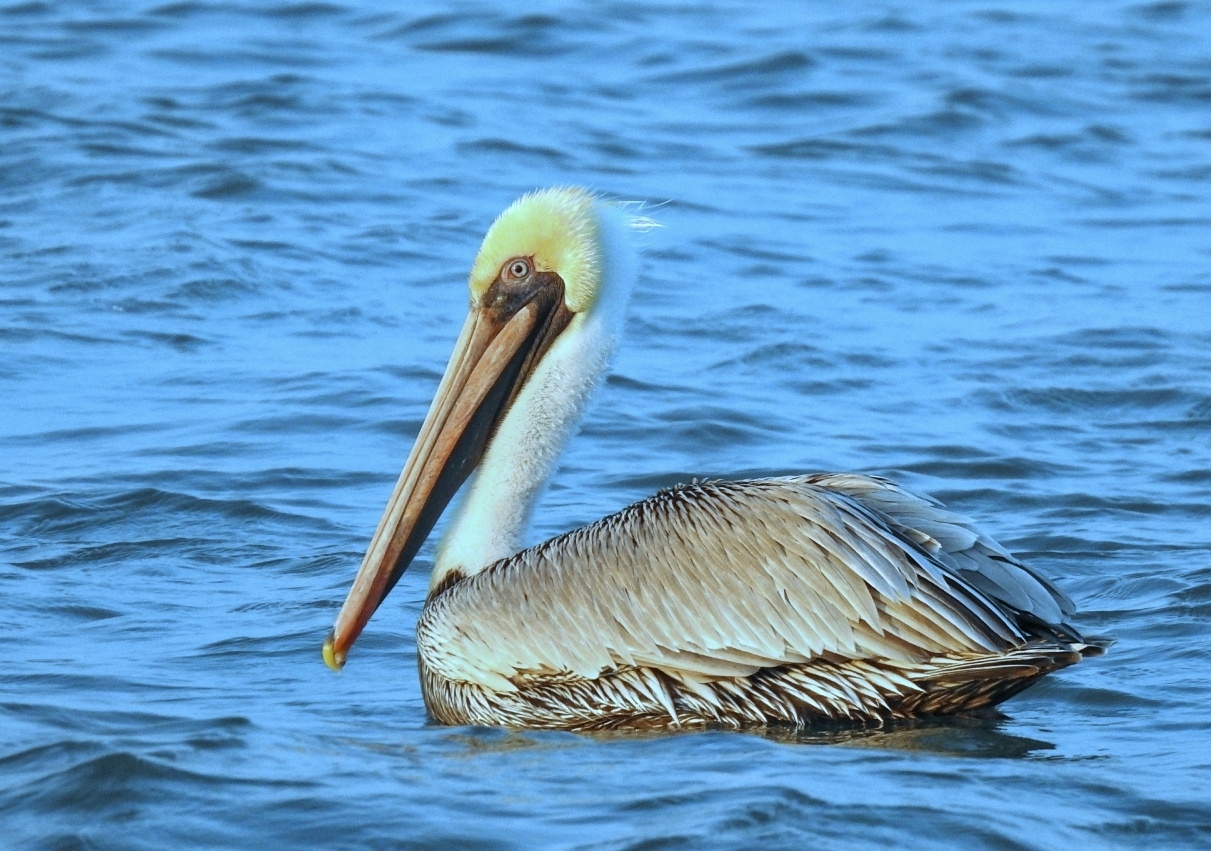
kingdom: Animalia
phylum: Chordata
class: Aves
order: Pelecaniformes
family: Pelecanidae
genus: Pelecanus
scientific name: Pelecanus occidentalis
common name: Brown pelican
